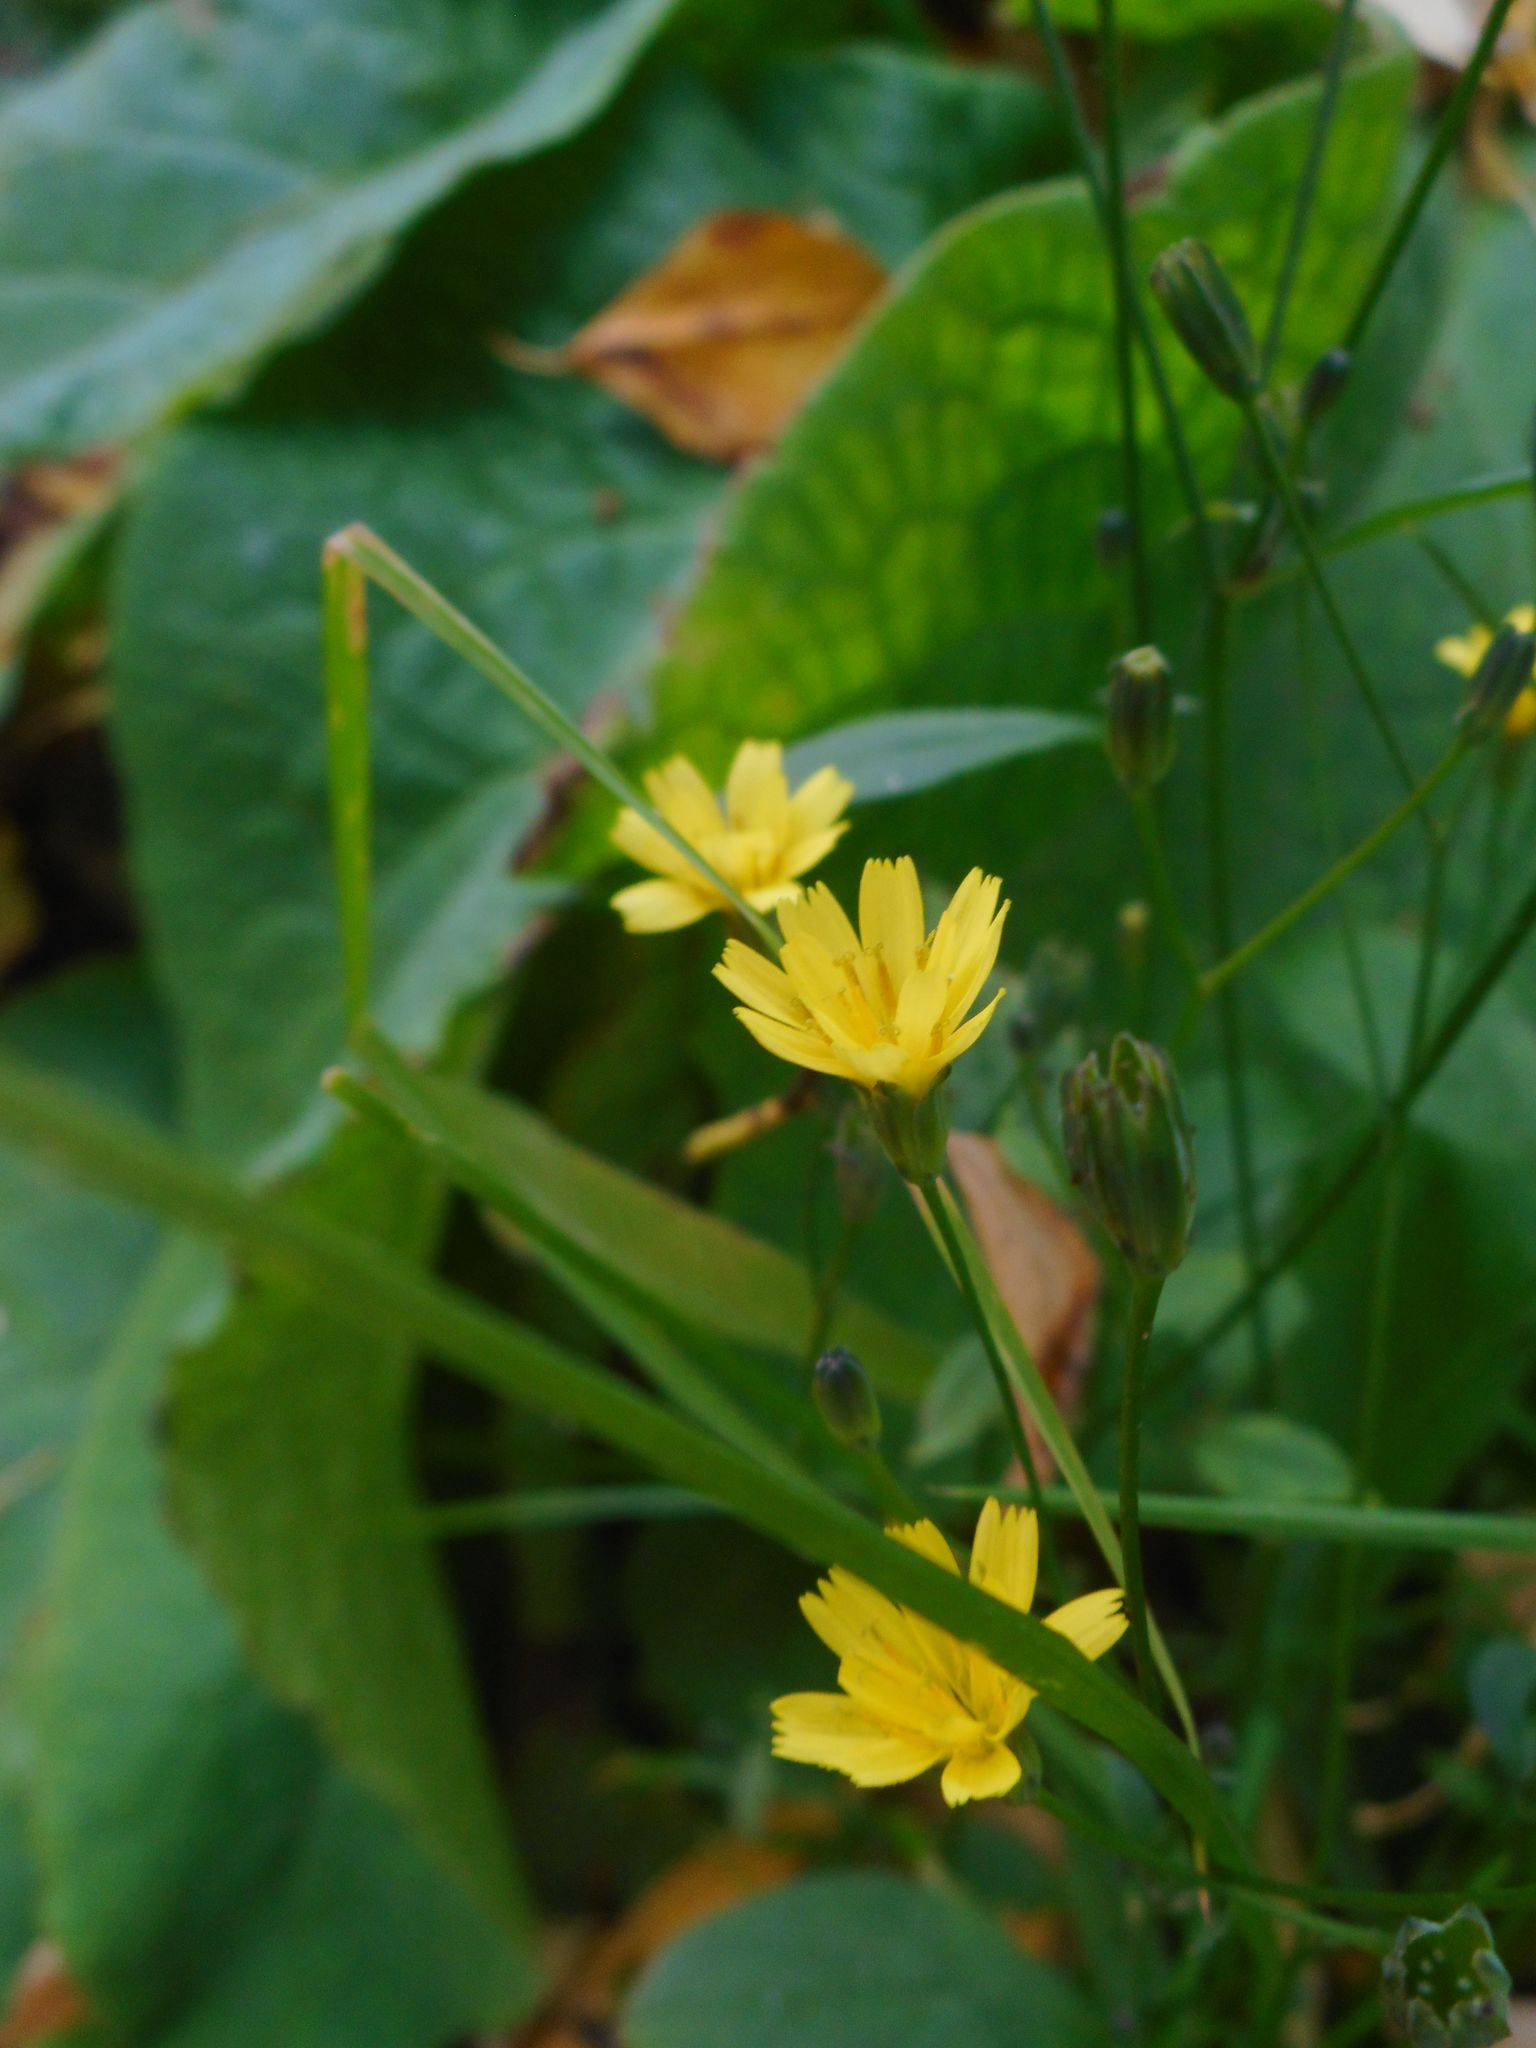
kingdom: Plantae
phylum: Tracheophyta
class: Magnoliopsida
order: Asterales
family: Asteraceae
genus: Lapsana
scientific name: Lapsana communis
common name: Nipplewort
